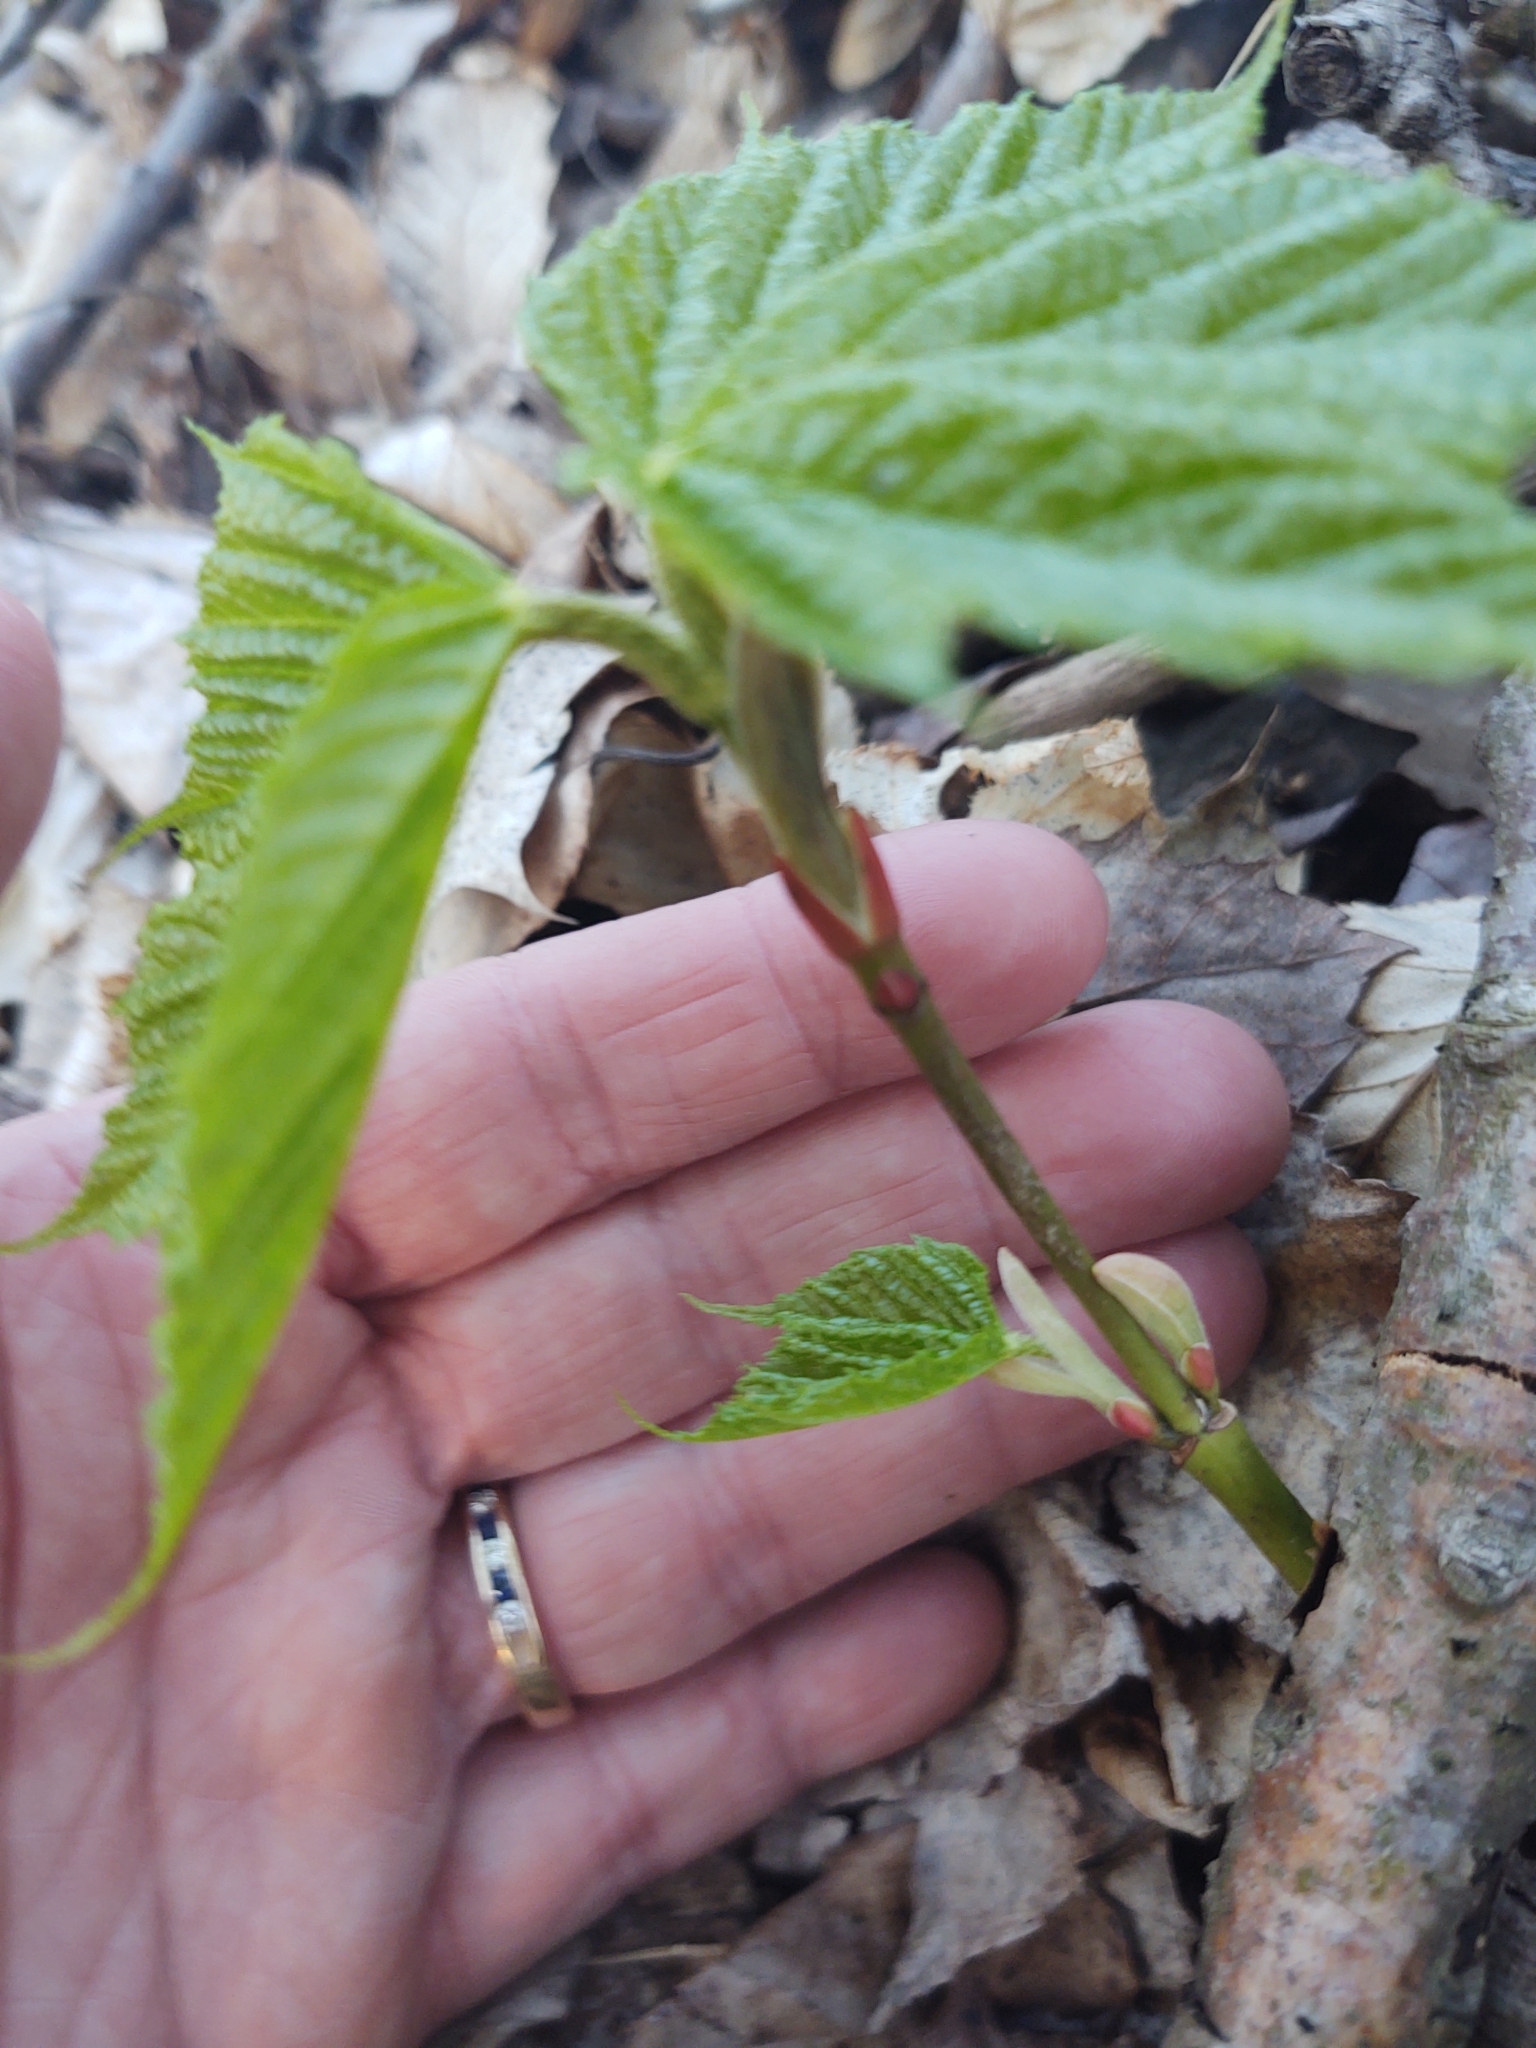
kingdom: Plantae
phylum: Tracheophyta
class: Magnoliopsida
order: Dipsacales
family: Viburnaceae
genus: Viburnum
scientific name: Viburnum acerifolium
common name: Dockmackie
